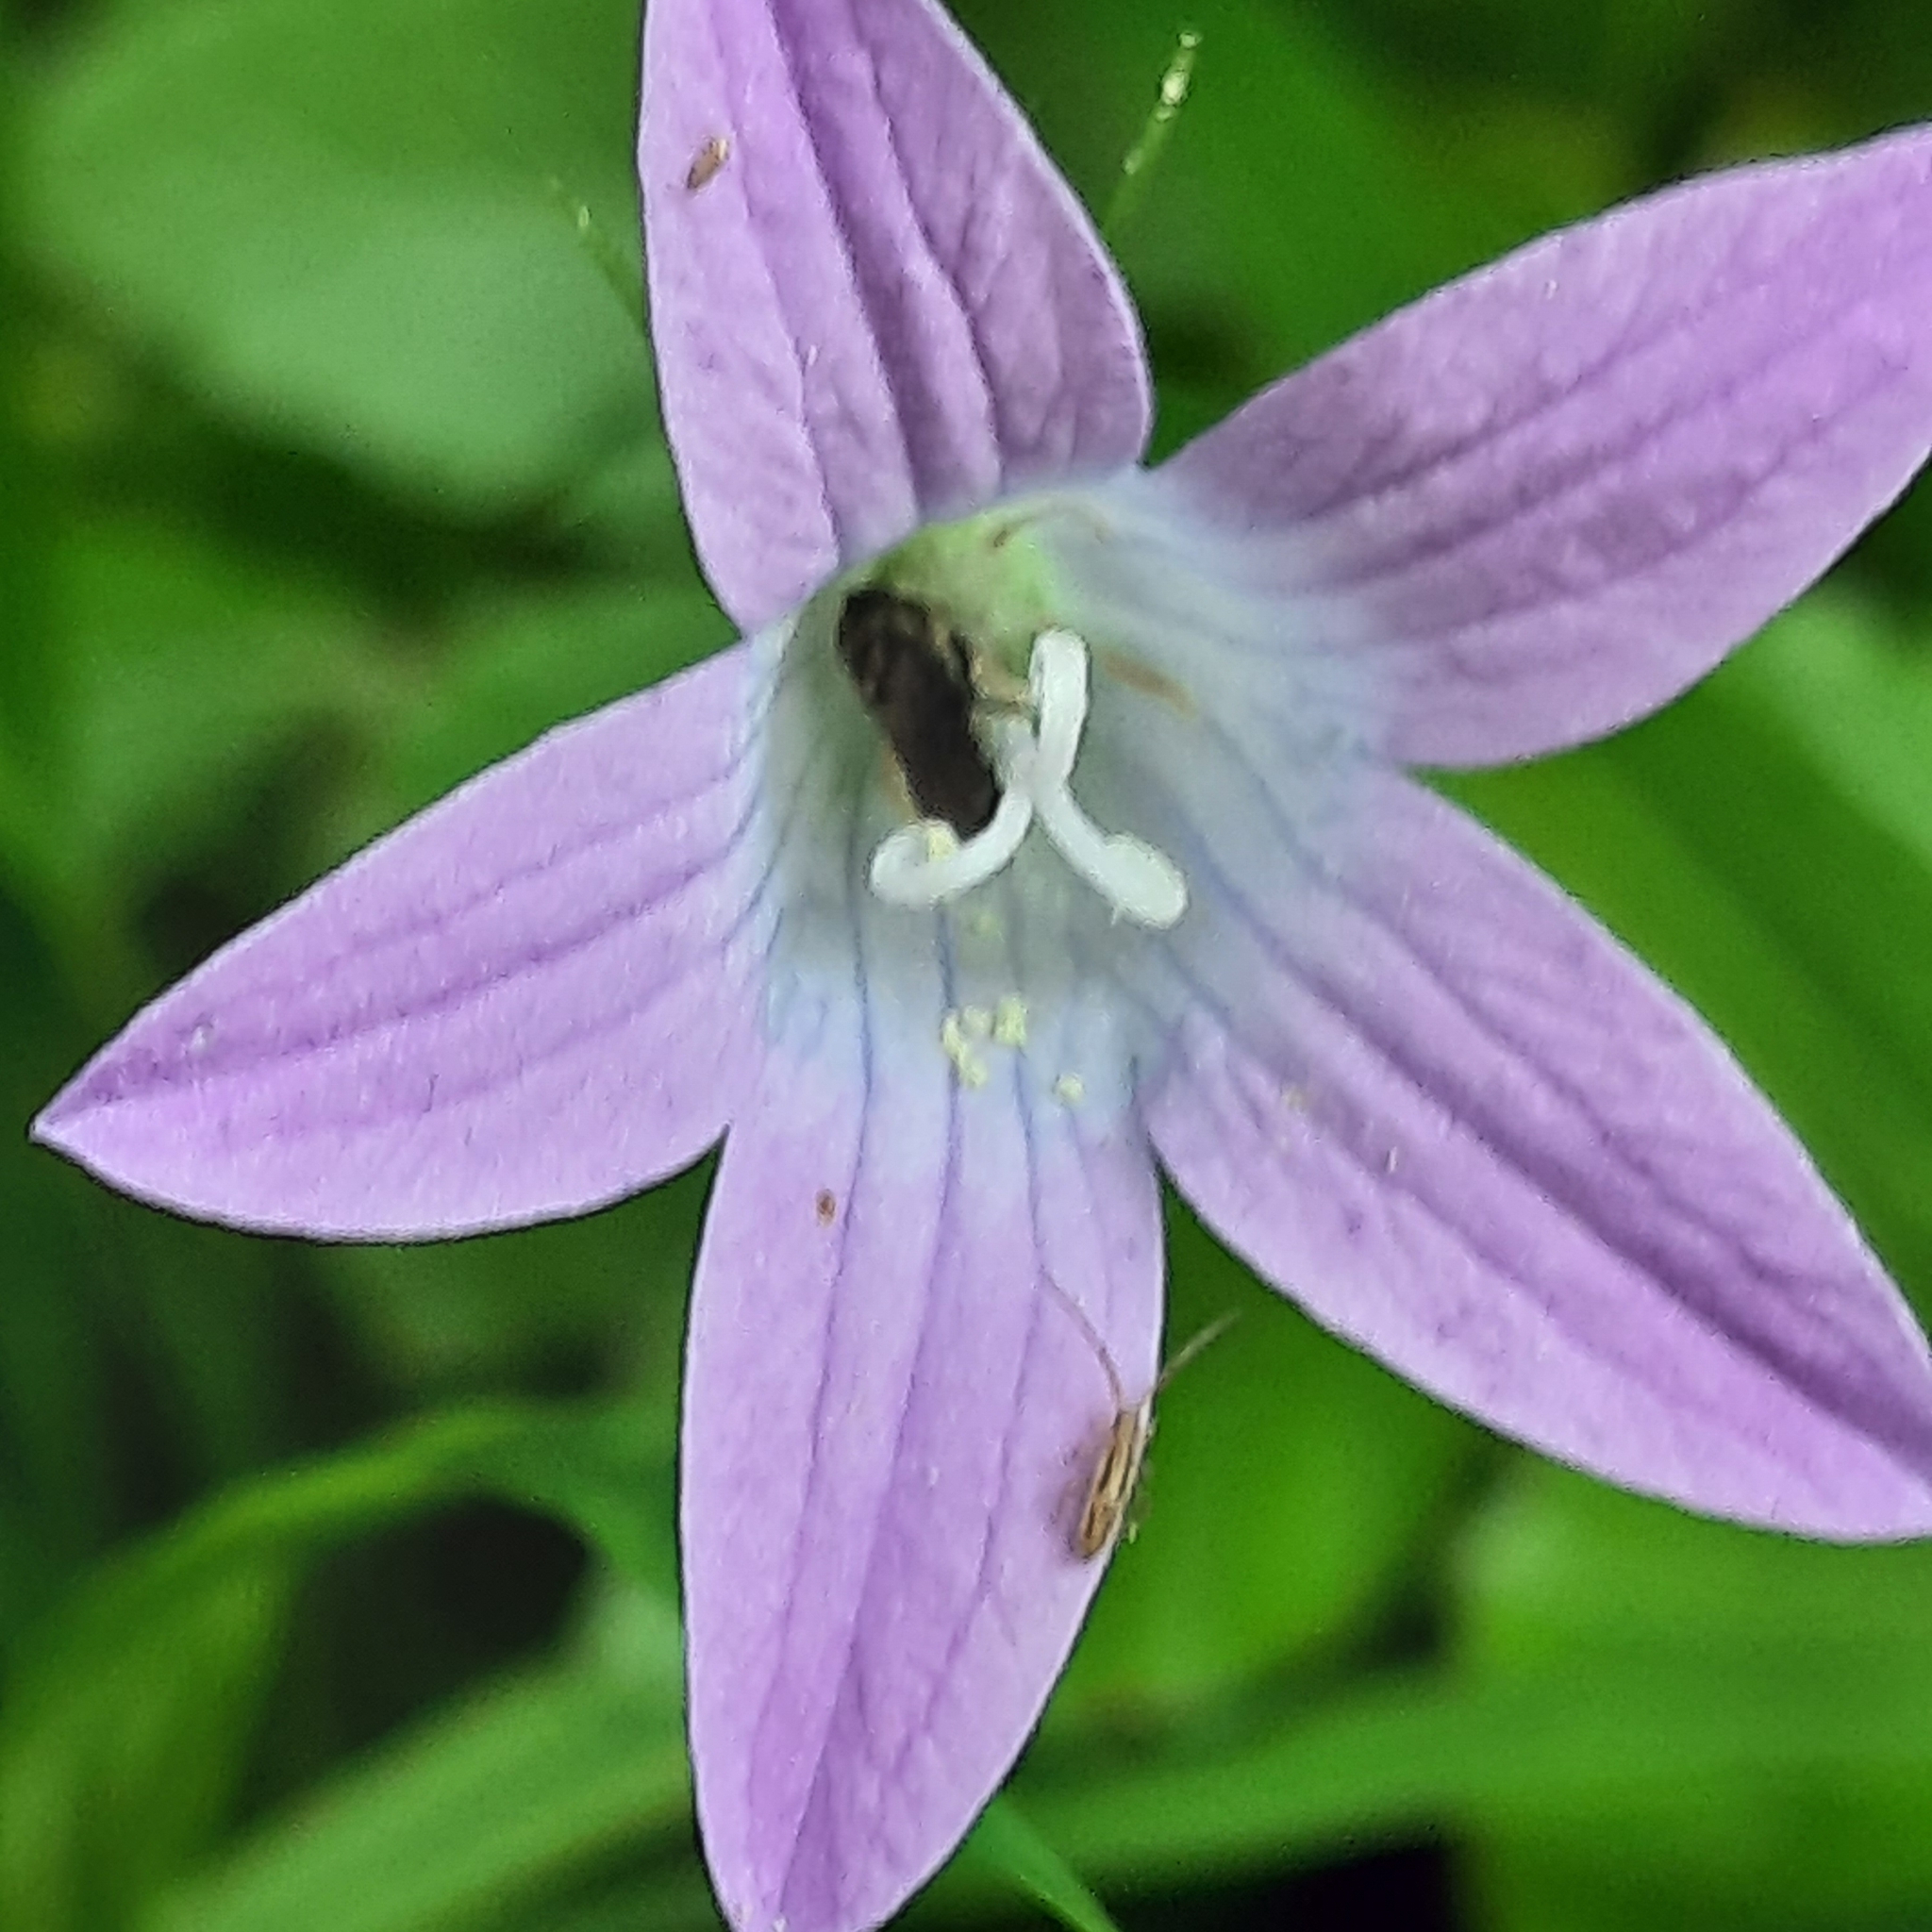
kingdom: Plantae
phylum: Tracheophyta
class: Magnoliopsida
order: Asterales
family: Campanulaceae
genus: Campanula
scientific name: Campanula patula
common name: Spreading bellflower
